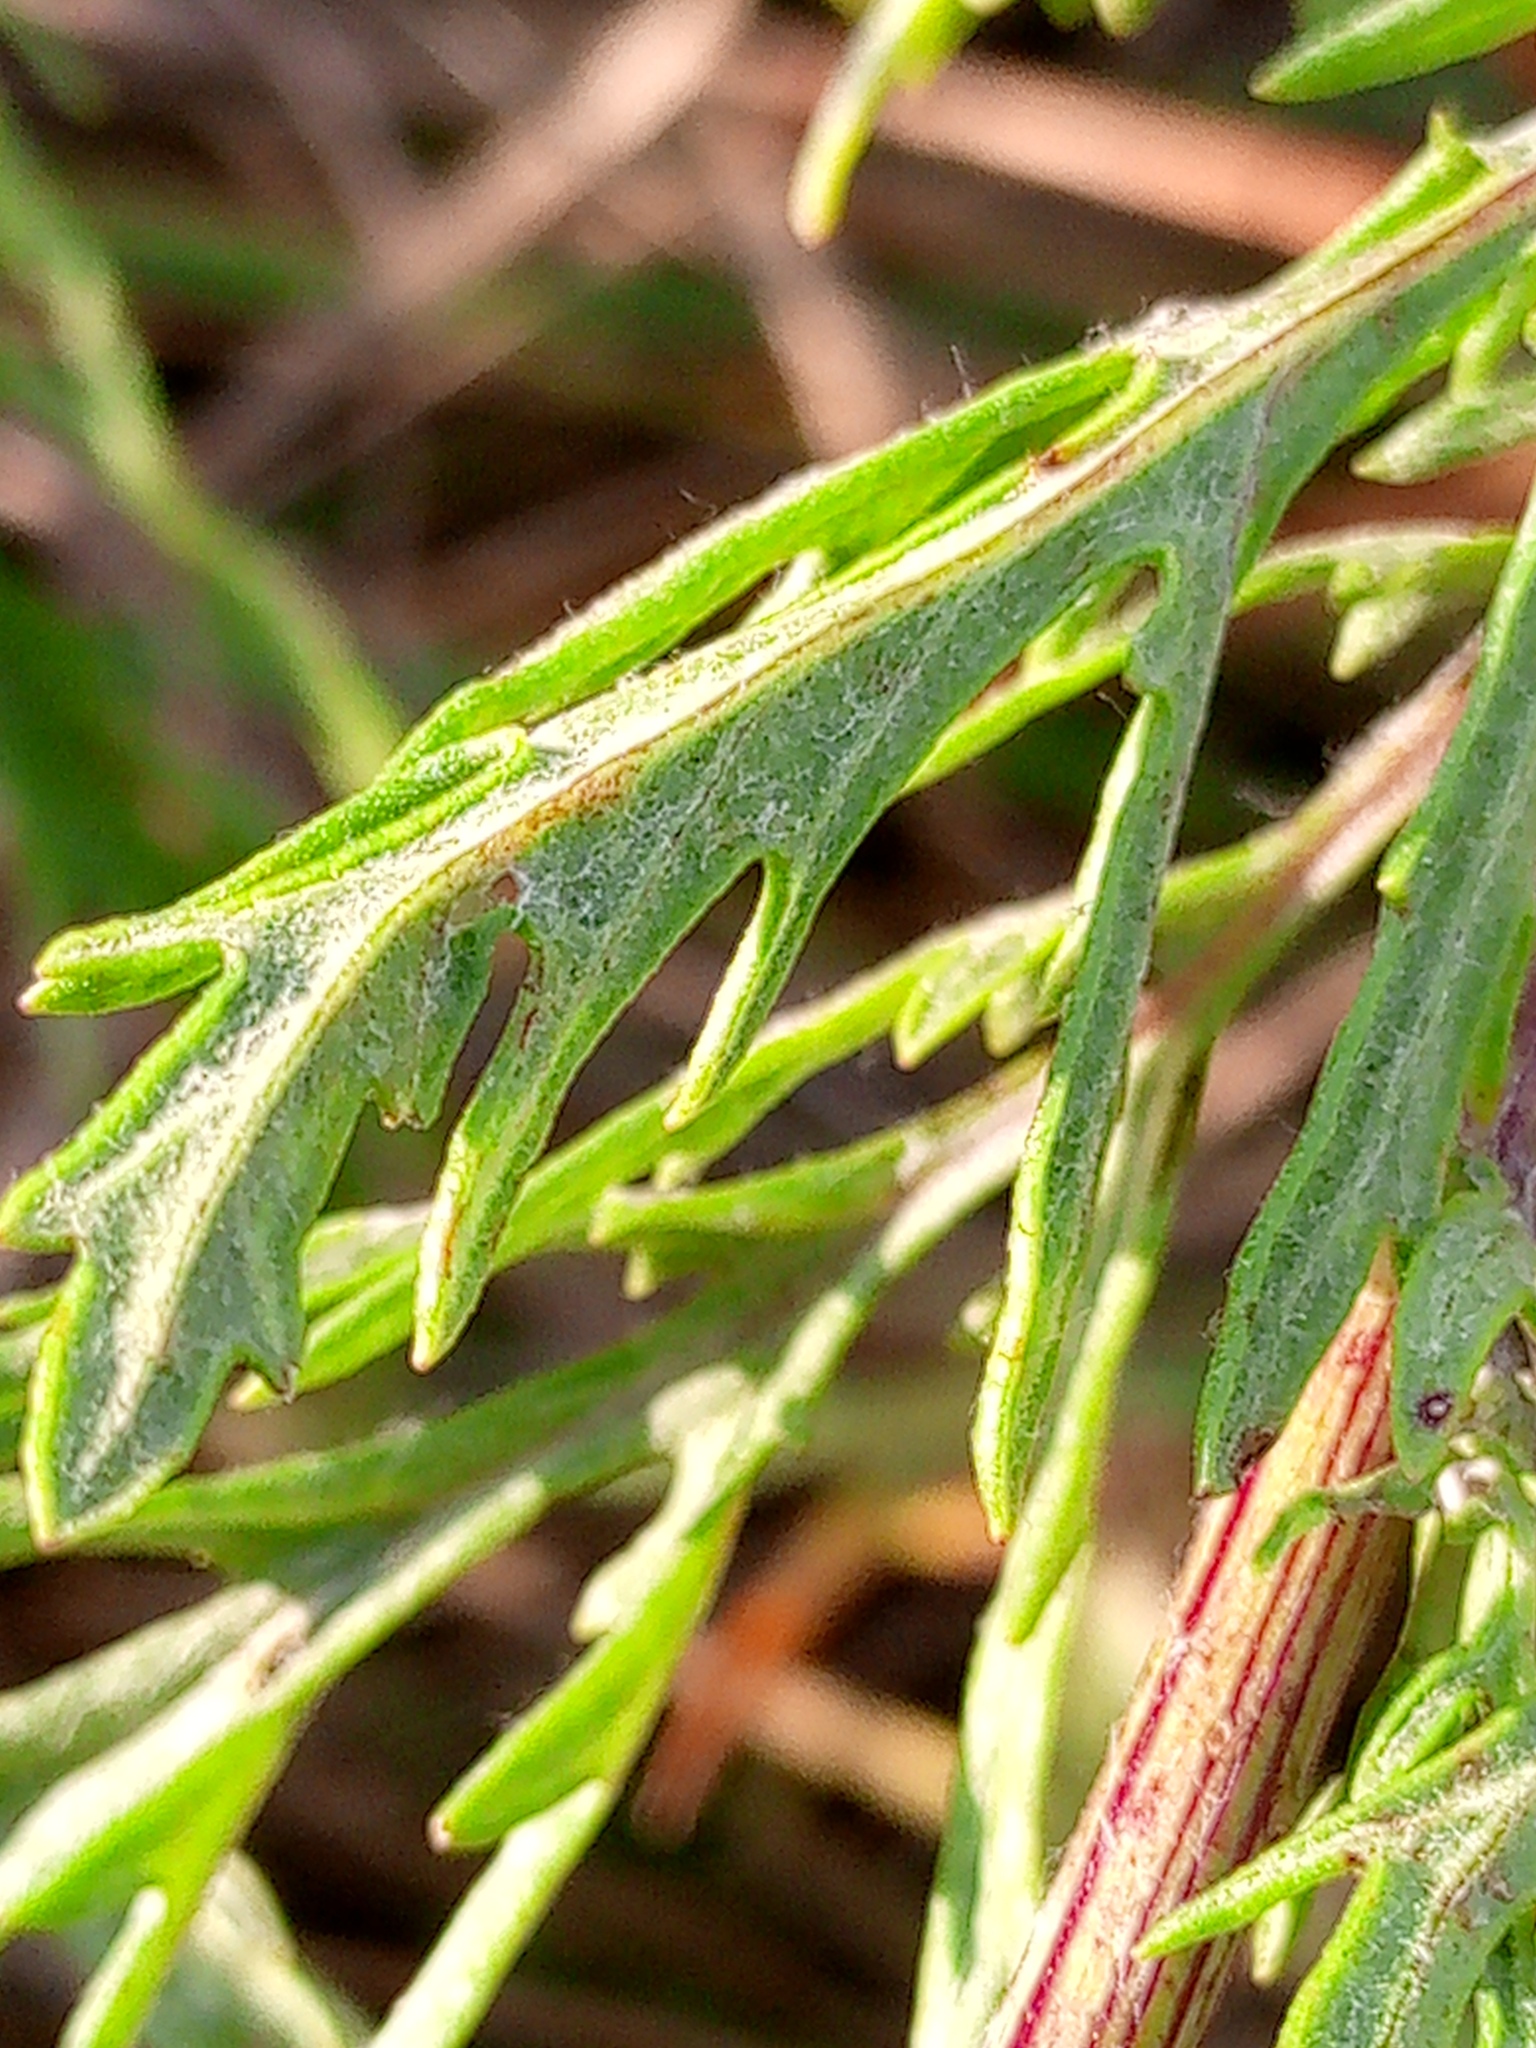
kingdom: Plantae
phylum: Tracheophyta
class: Magnoliopsida
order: Asterales
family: Asteraceae
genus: Jacobaea
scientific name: Jacobaea erucifolia
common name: Hoary ragwort
